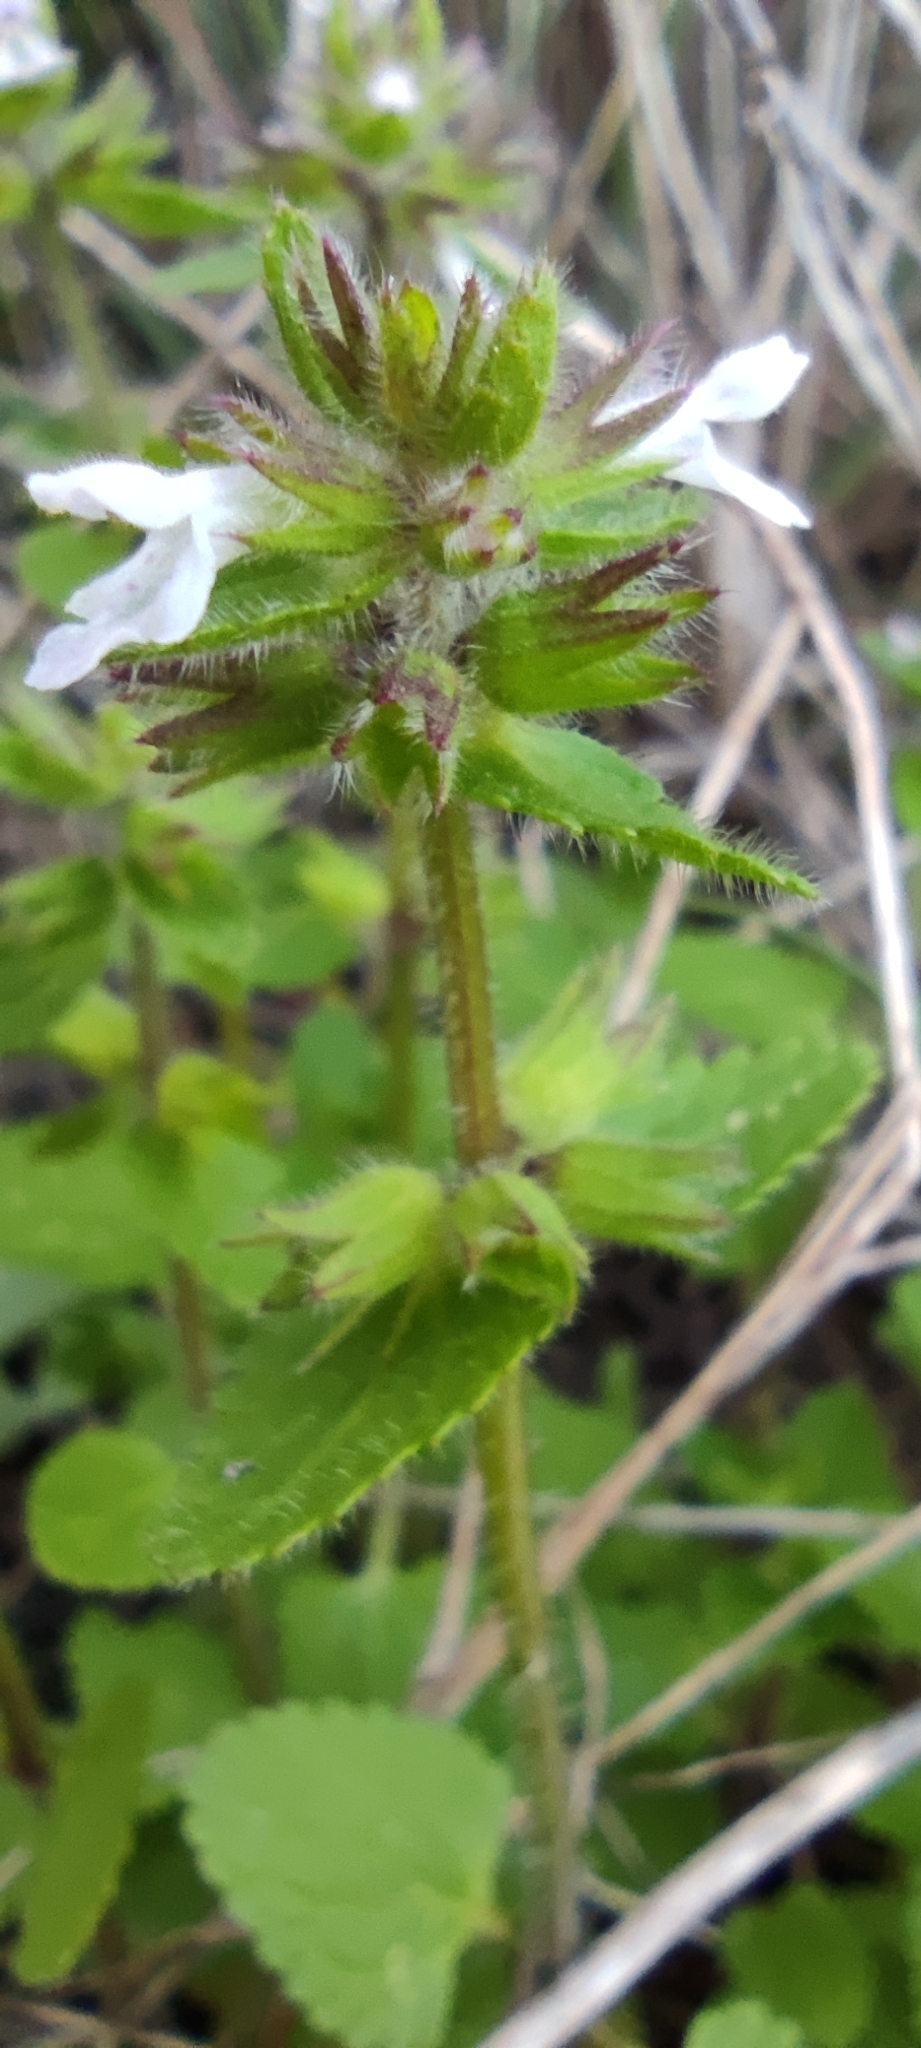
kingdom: Plantae
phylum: Tracheophyta
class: Magnoliopsida
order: Lamiales
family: Lamiaceae
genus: Stachys
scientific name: Stachys arvensis
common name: Field woundwort
